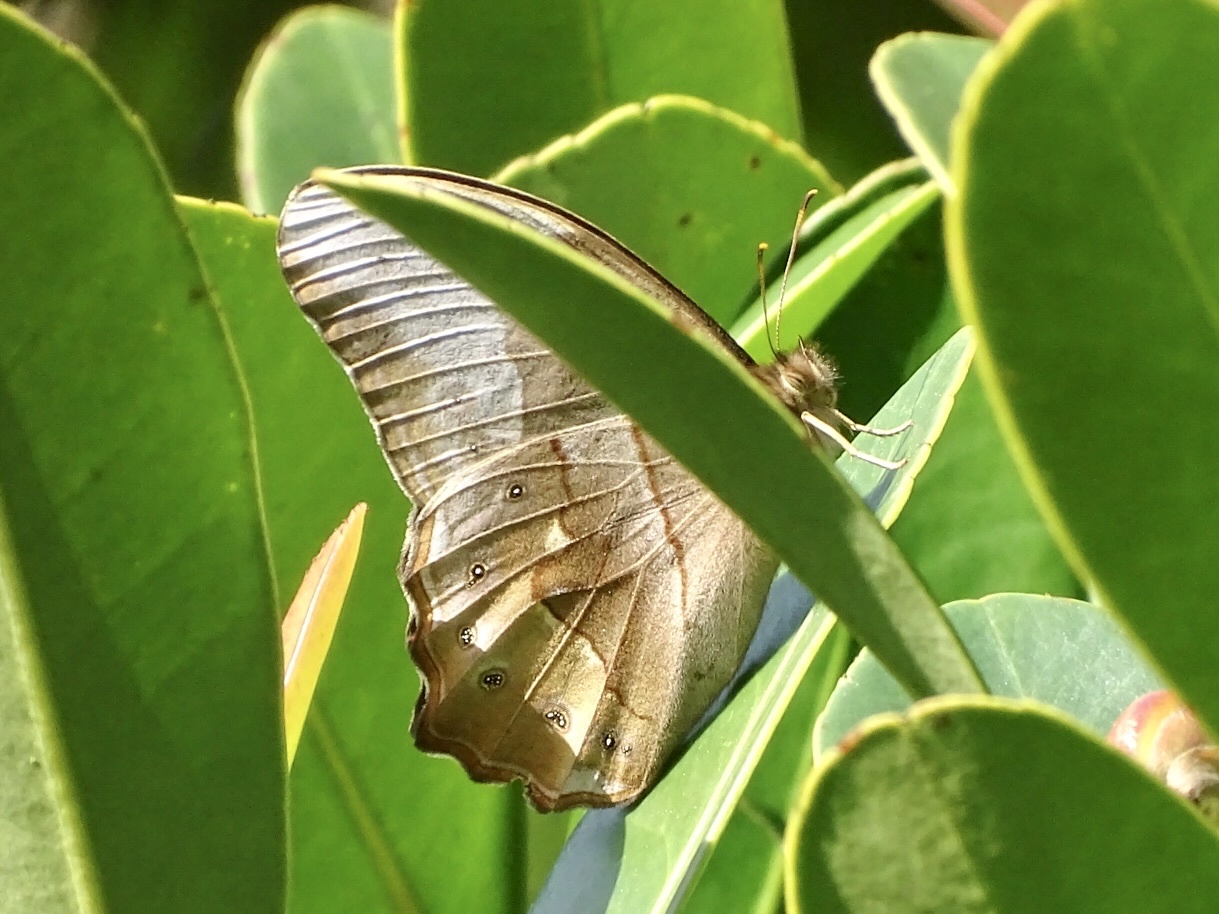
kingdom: Animalia
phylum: Arthropoda
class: Insecta
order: Lepidoptera
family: Nymphalidae
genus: Lethe
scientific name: Lethe chandica
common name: Angled red forester
